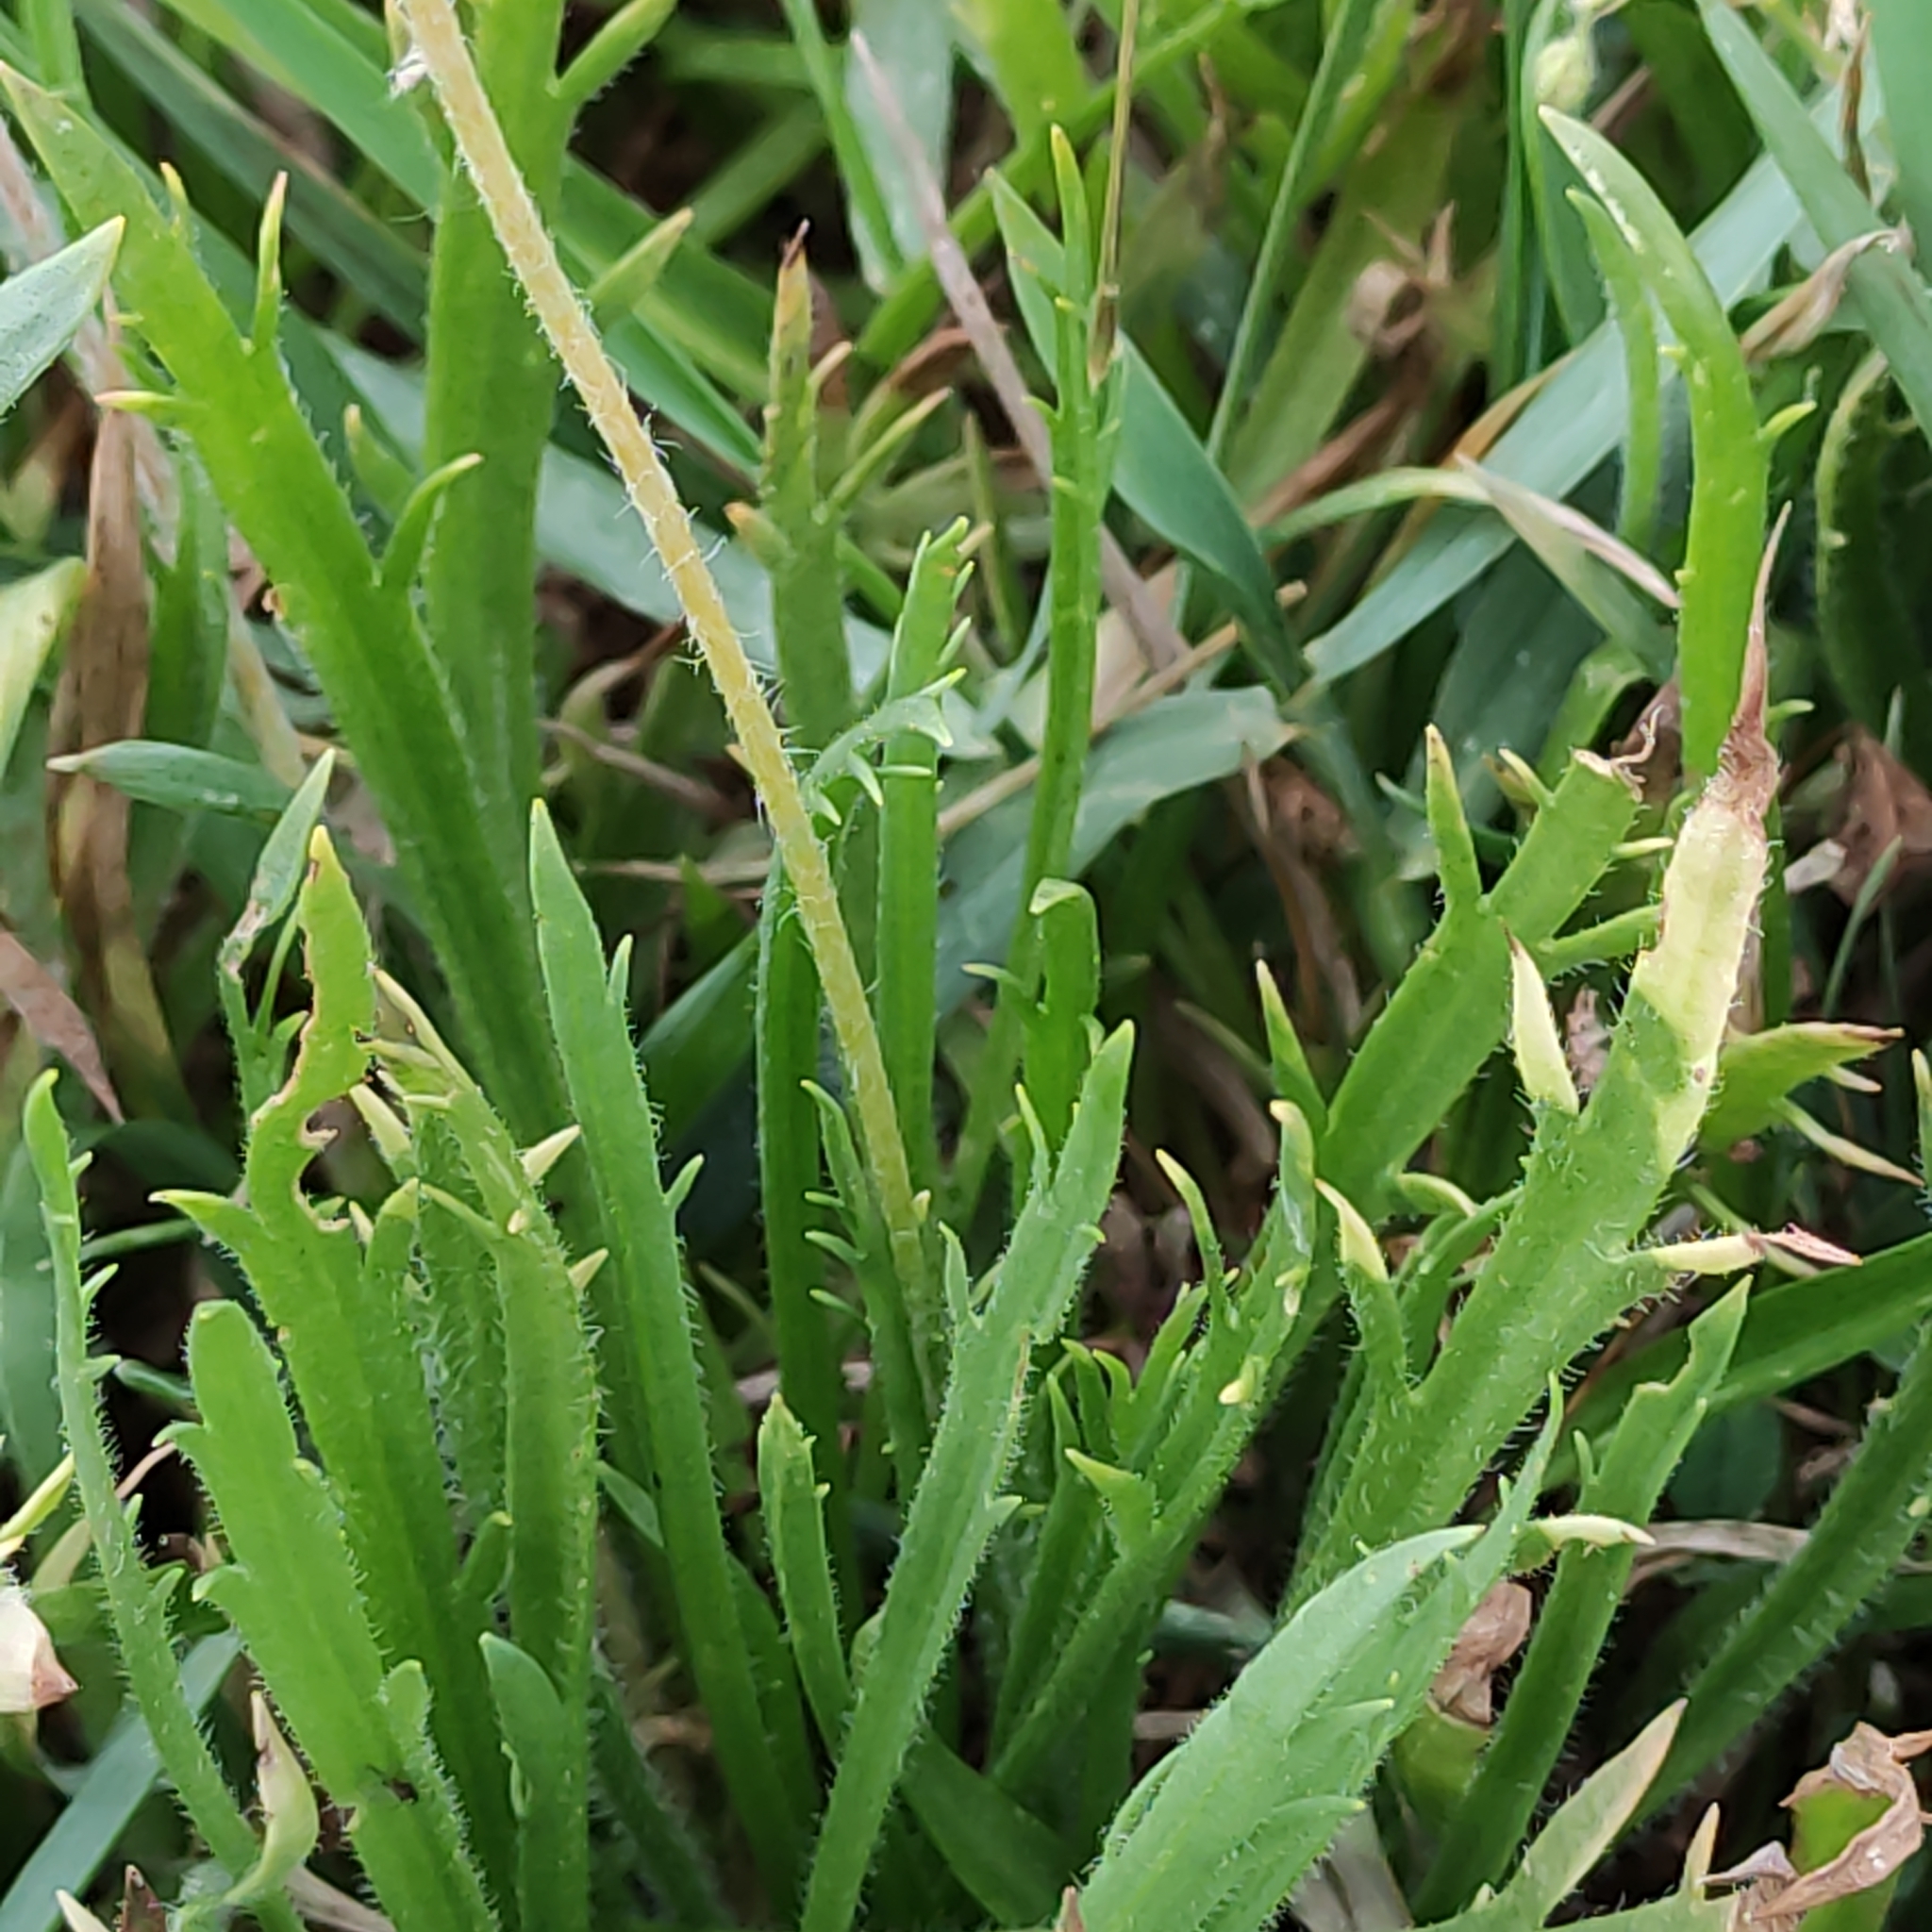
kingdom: Plantae
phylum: Tracheophyta
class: Magnoliopsida
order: Lamiales
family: Plantaginaceae
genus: Plantago
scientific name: Plantago coronopus
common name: Buck's-horn plantain
